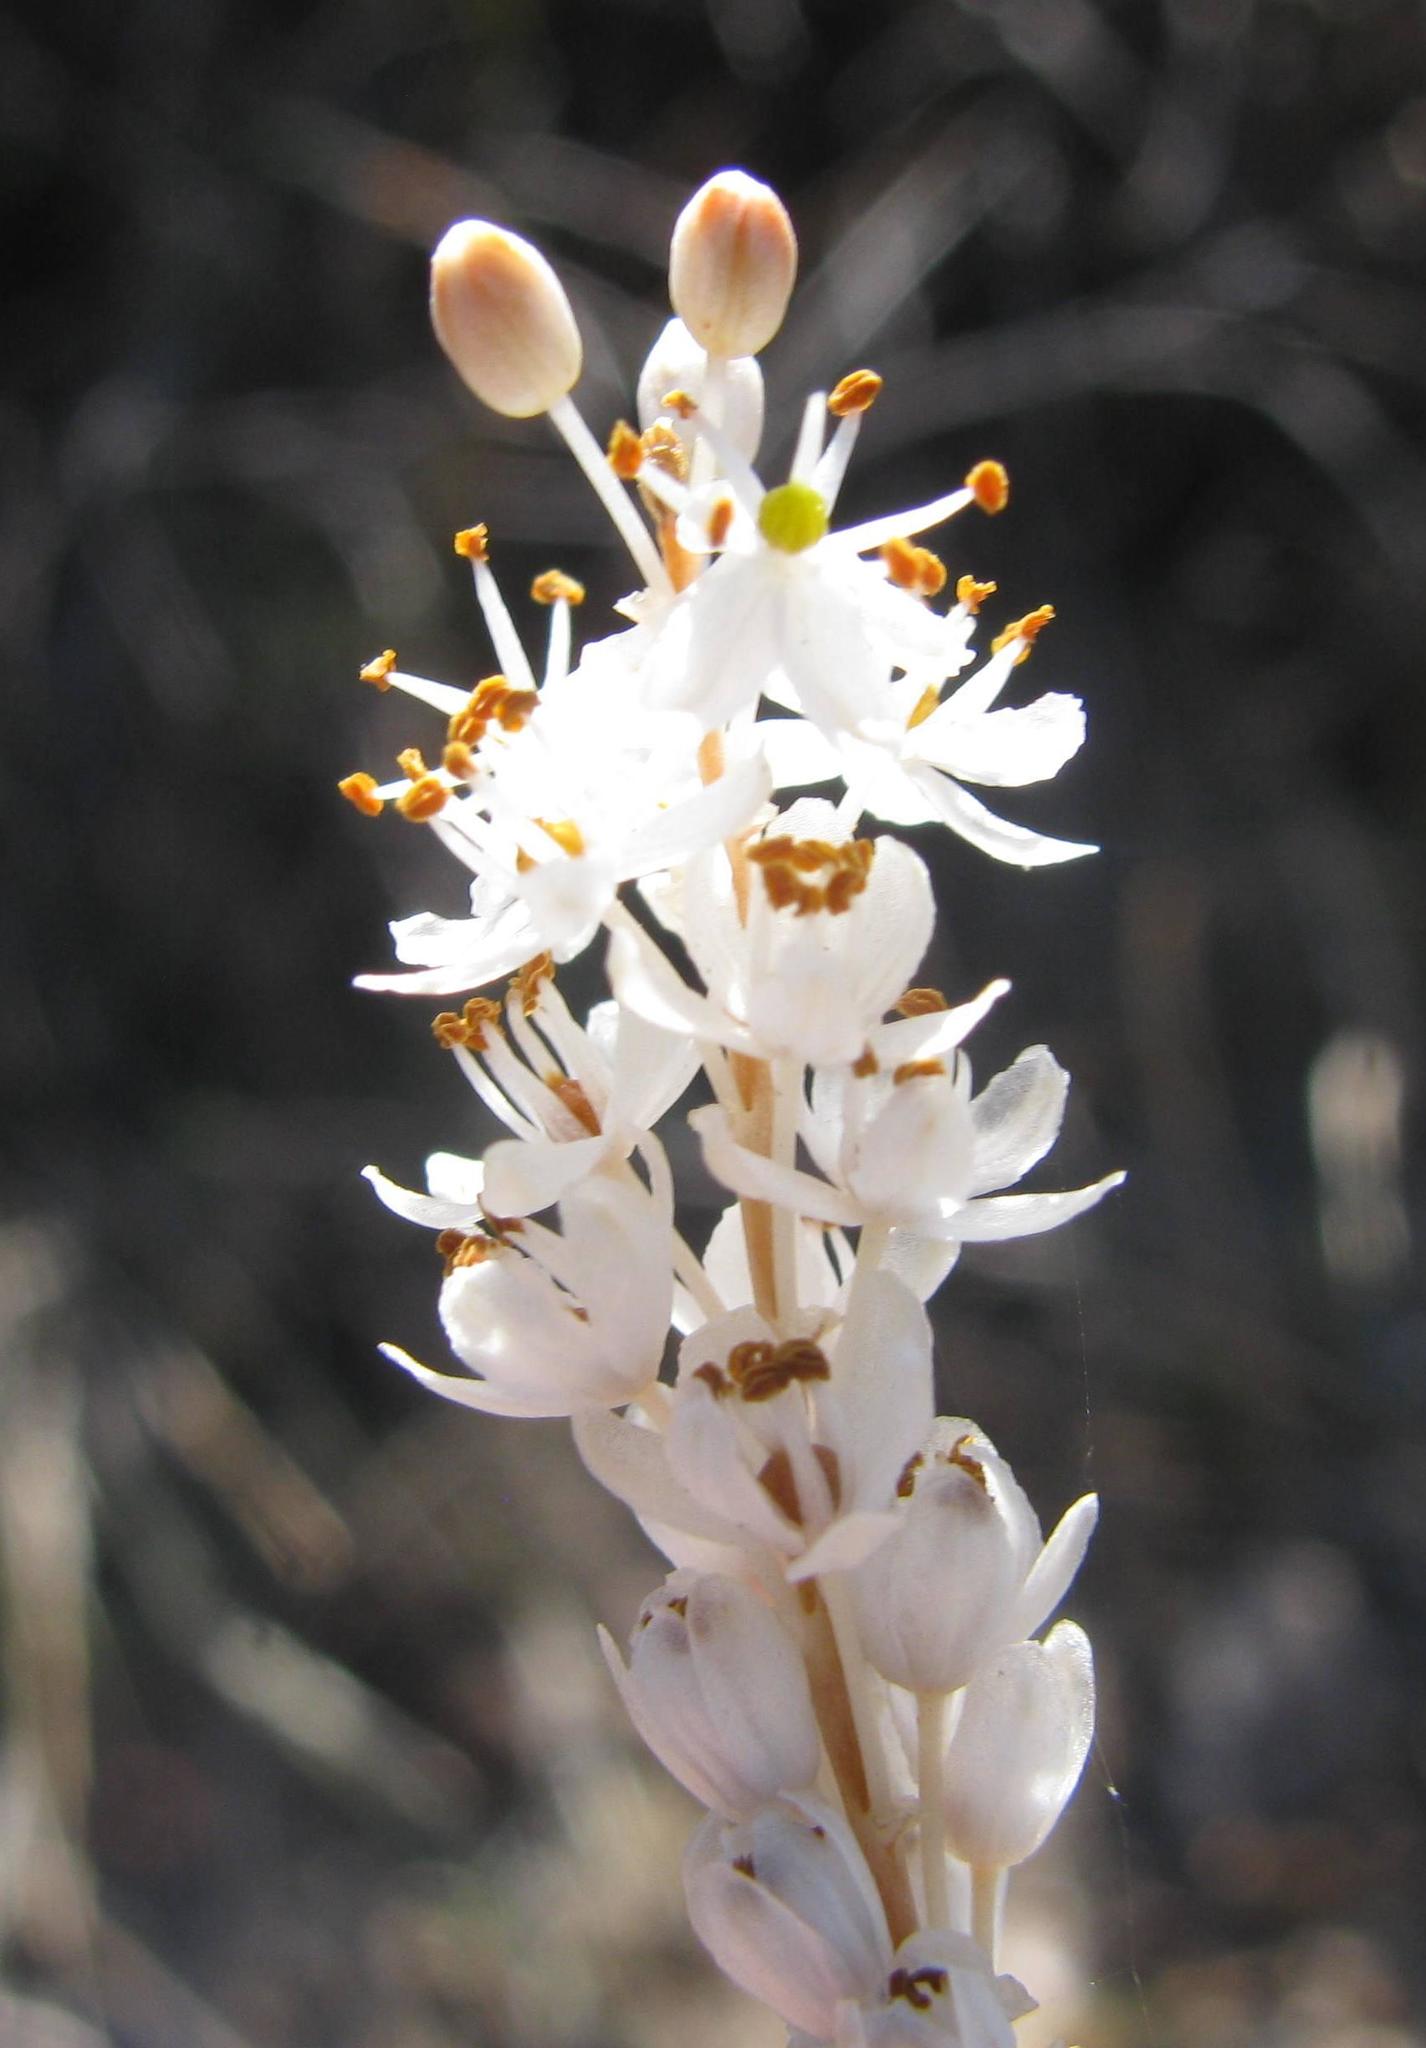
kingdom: Plantae
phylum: Tracheophyta
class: Liliopsida
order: Asparagales
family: Asphodelaceae
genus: Bulbinella
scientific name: Bulbinella trinervis
